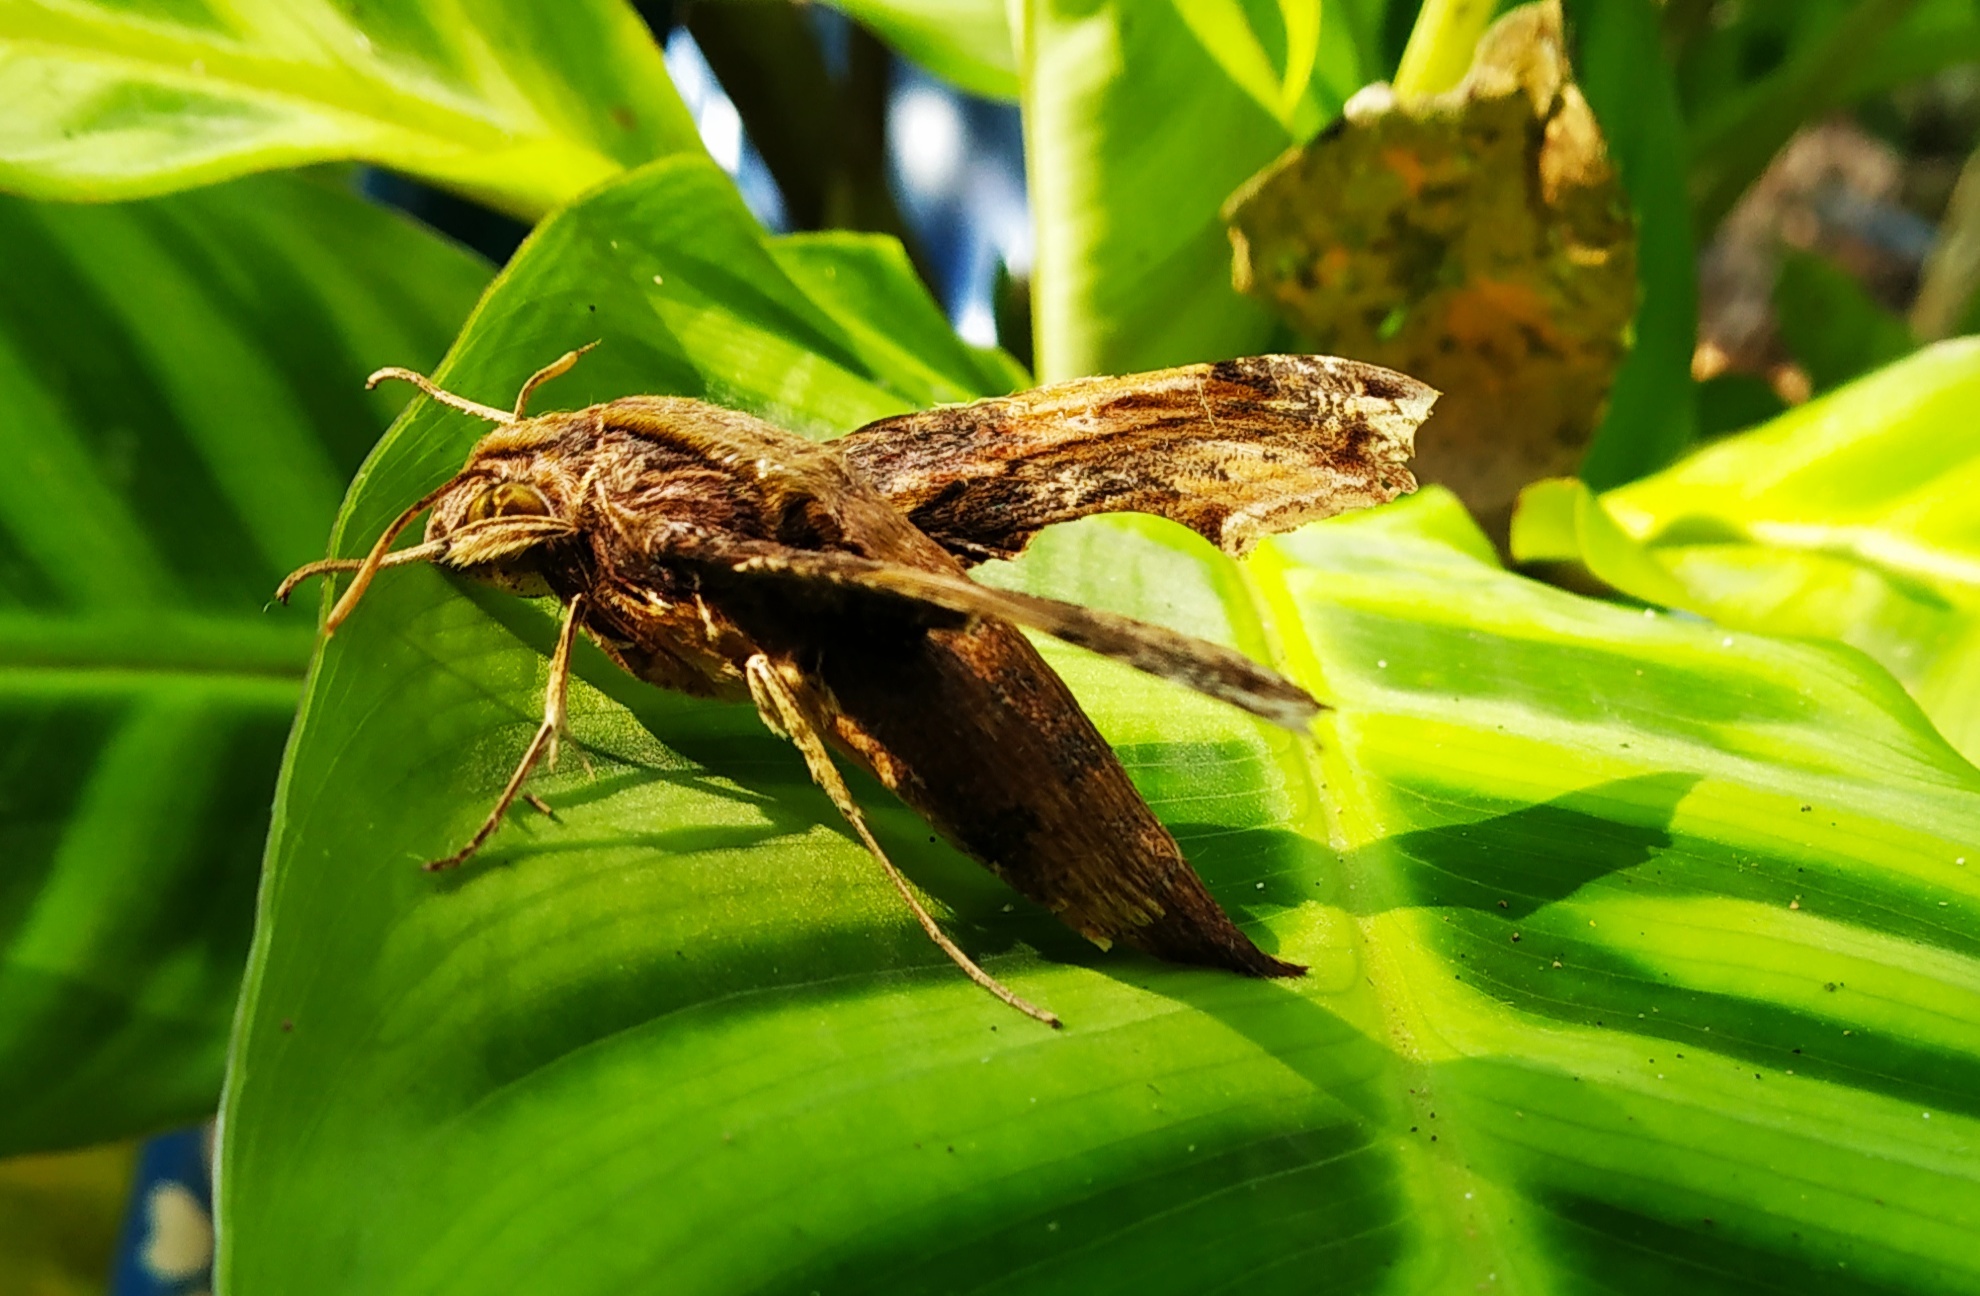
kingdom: Animalia
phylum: Arthropoda
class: Insecta
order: Lepidoptera
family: Sphingidae
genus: Eupanacra
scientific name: Eupanacra busiris
